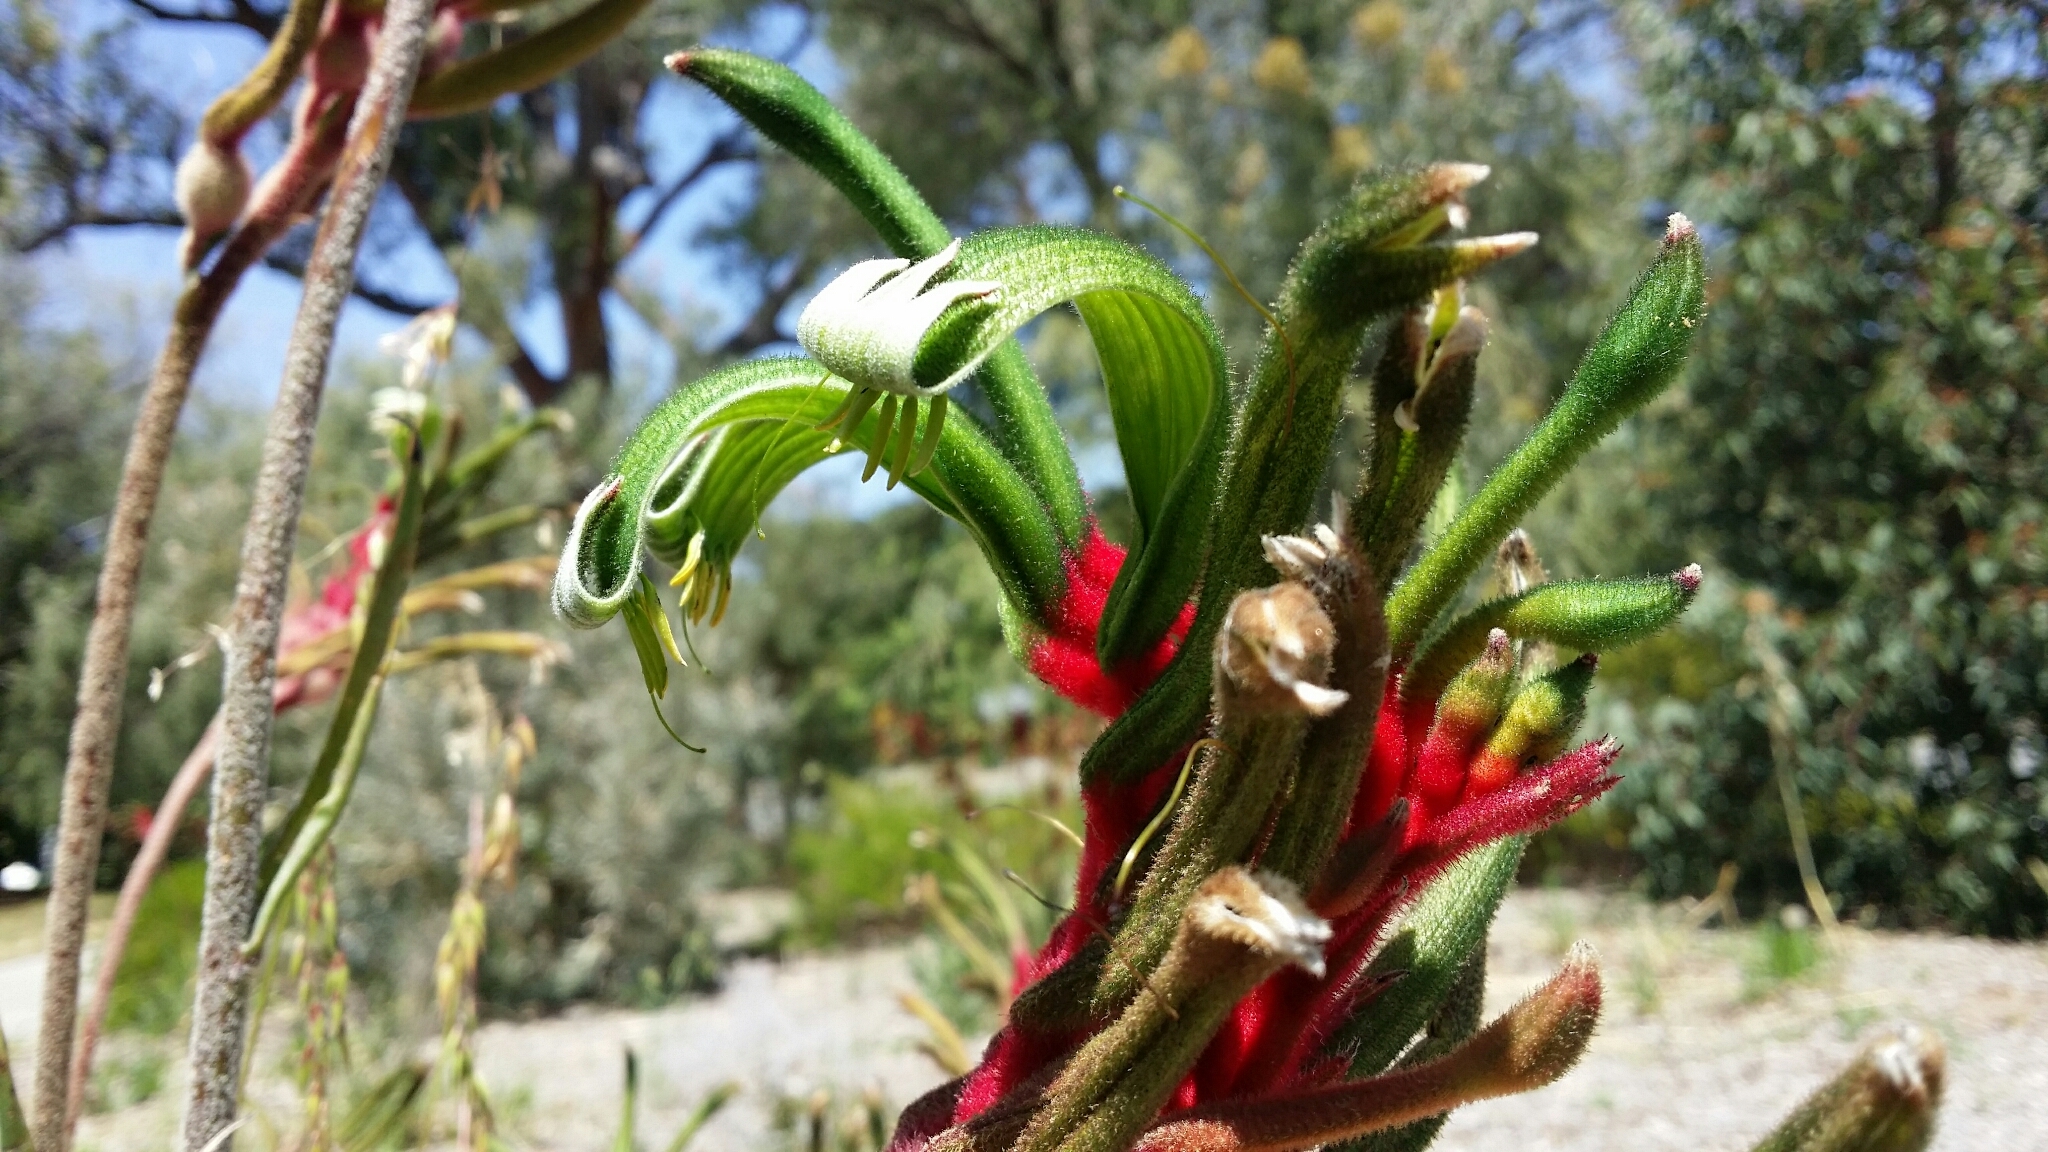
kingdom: Plantae
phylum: Tracheophyta
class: Liliopsida
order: Commelinales
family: Haemodoraceae
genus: Anigozanthos
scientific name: Anigozanthos manglesii
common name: Mangles's kangaroo-paw
